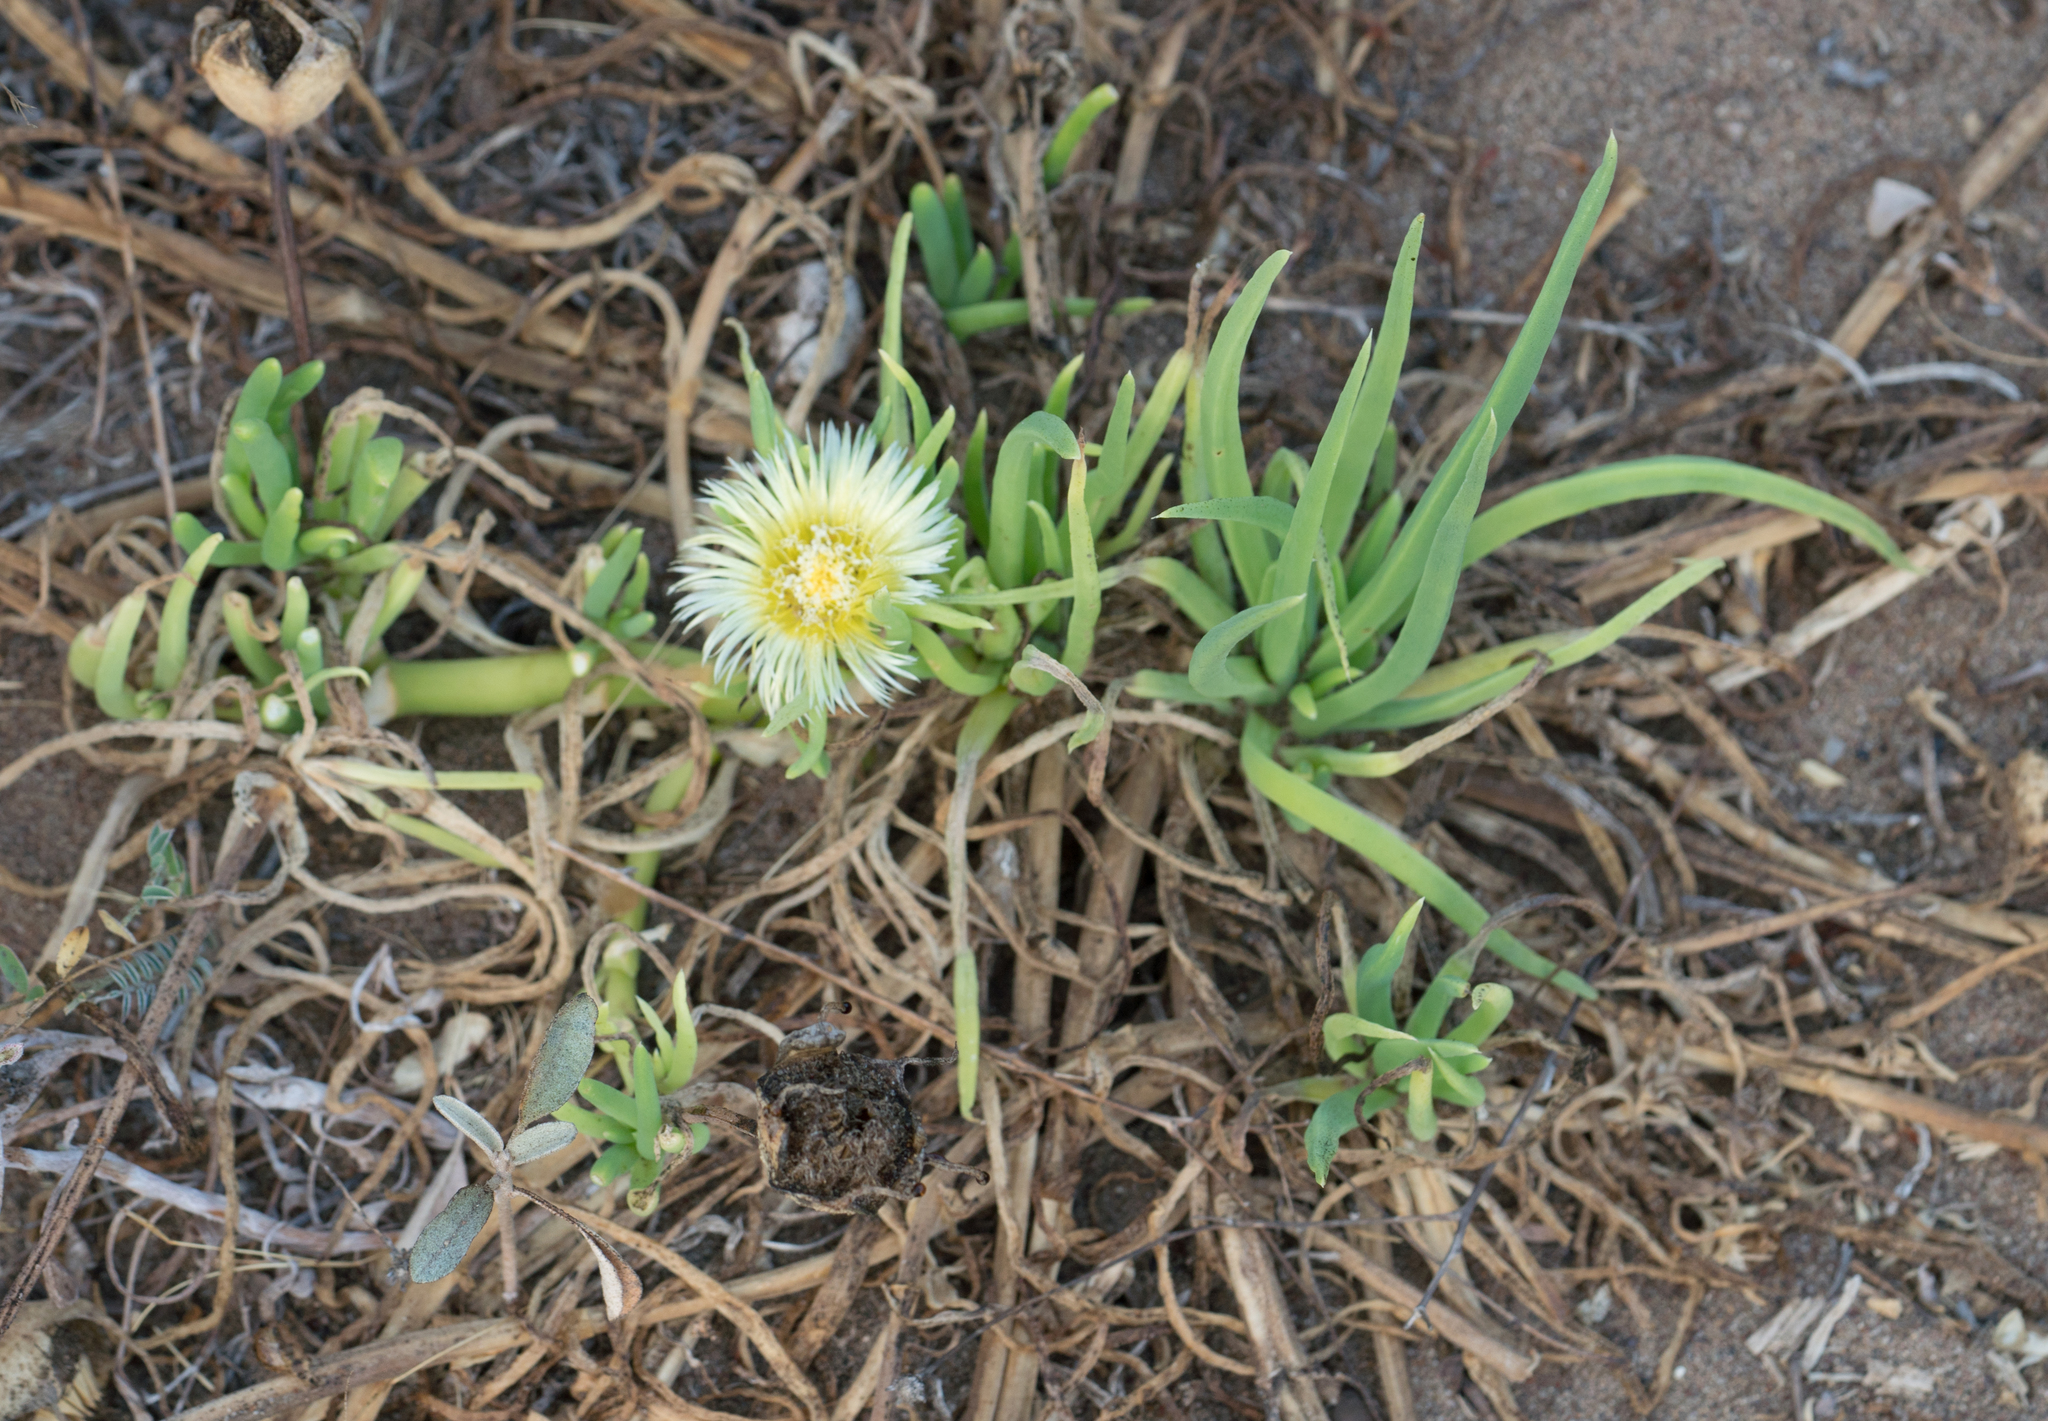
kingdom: Plantae
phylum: Tracheophyta
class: Magnoliopsida
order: Caryophyllales
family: Aizoaceae
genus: Conicosia
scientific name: Conicosia pugioniformis
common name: Narrow-leaved iceplant
